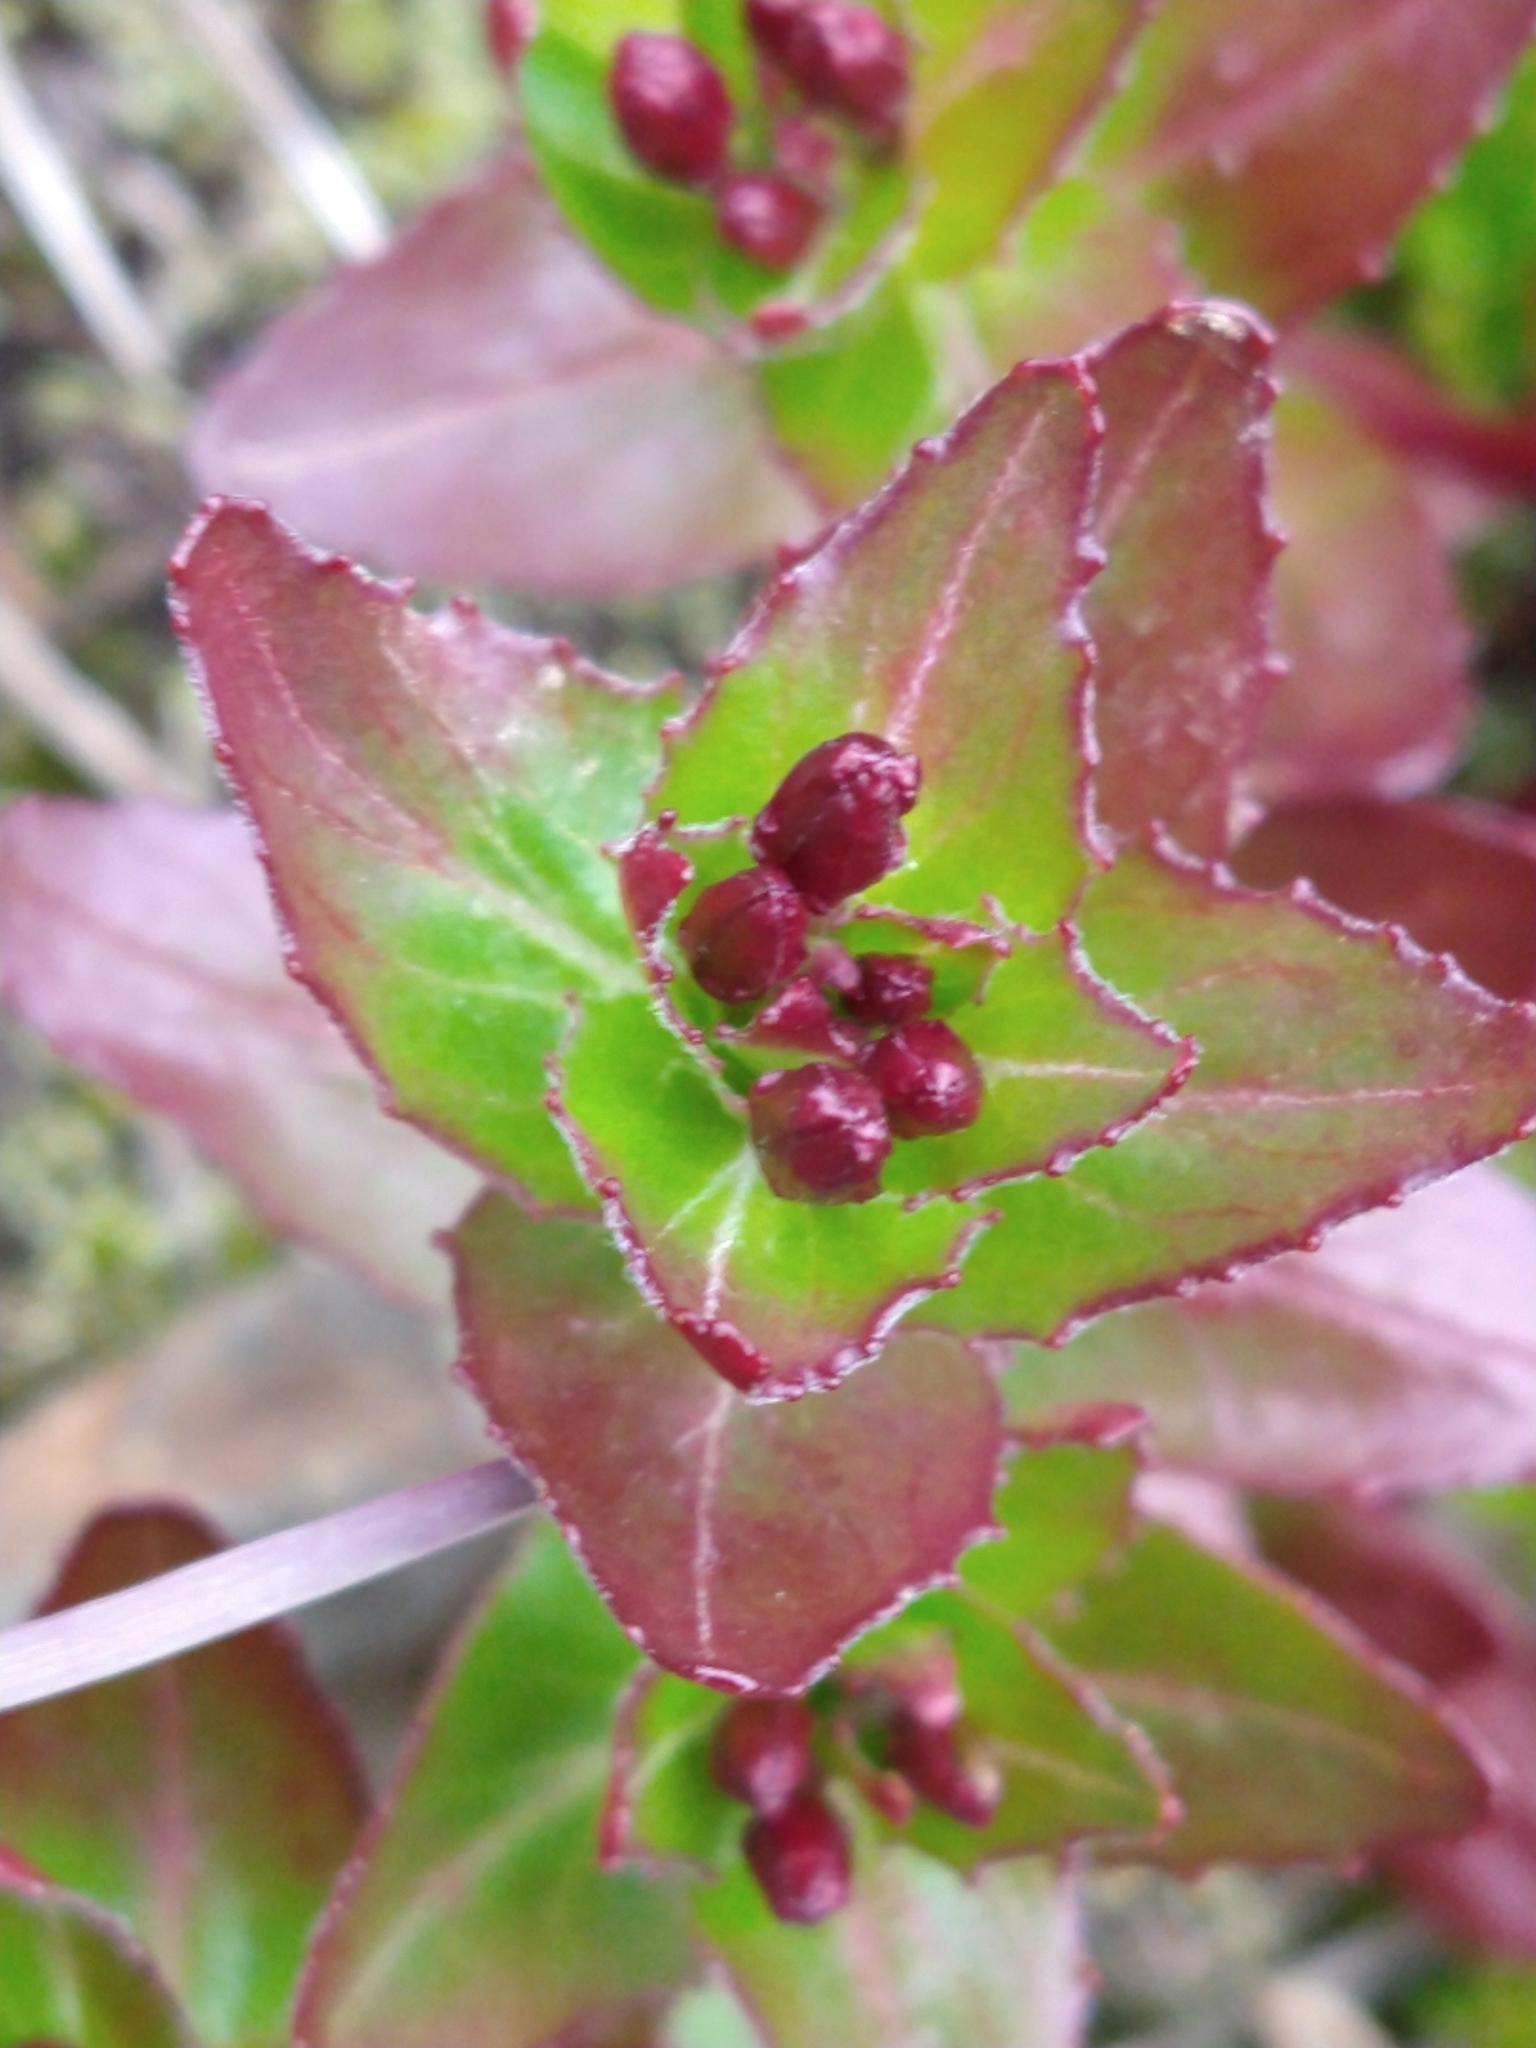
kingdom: Plantae
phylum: Tracheophyta
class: Magnoliopsida
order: Myrtales
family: Onagraceae
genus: Epilobium
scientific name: Epilobium australe
